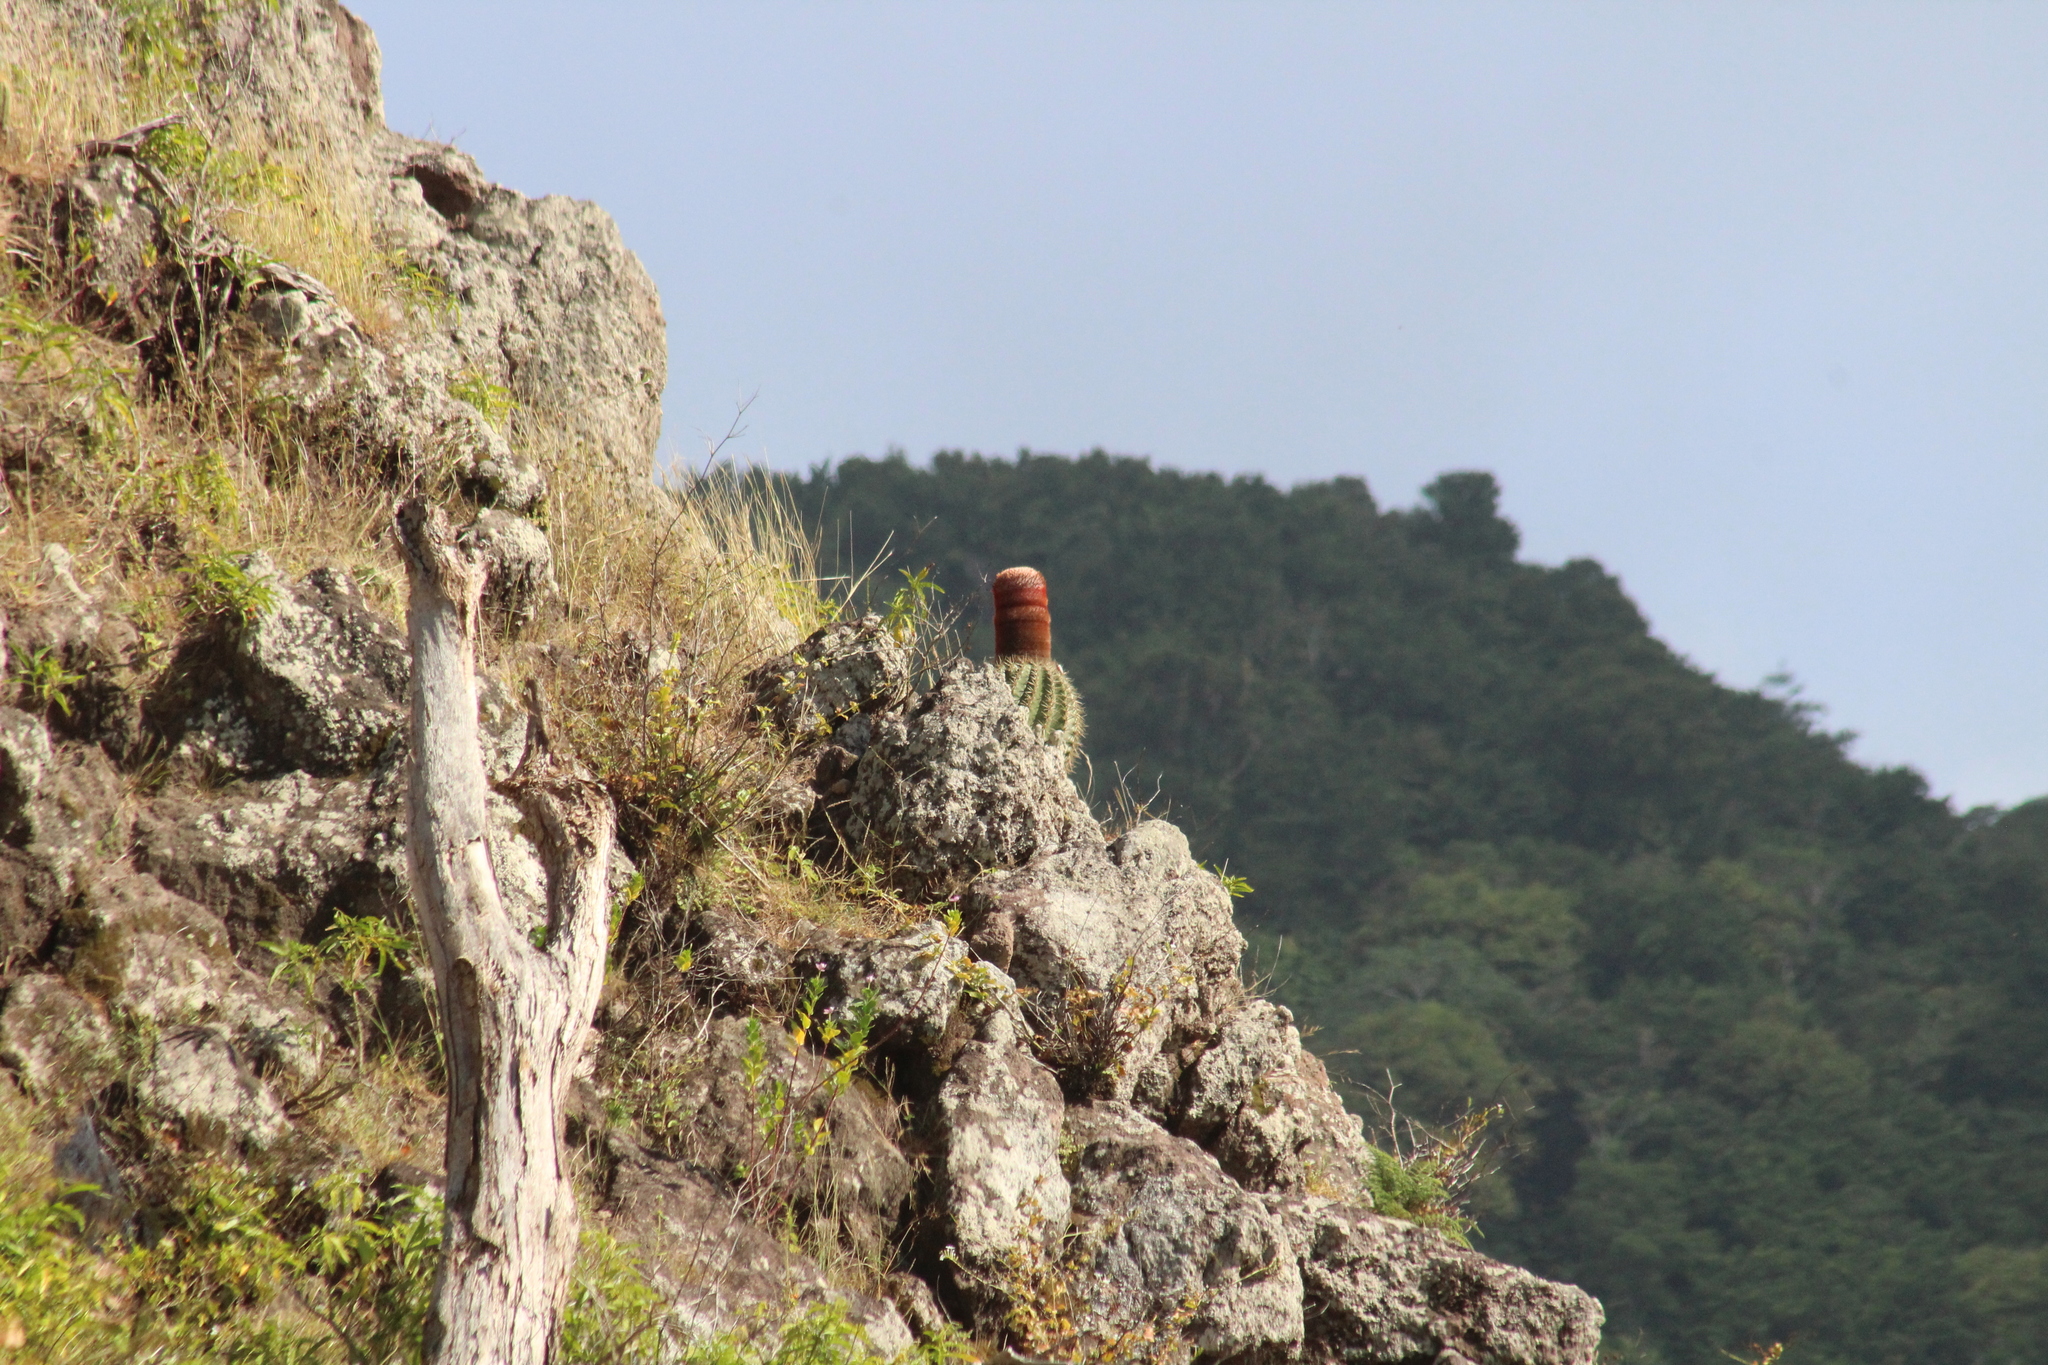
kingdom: Plantae
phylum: Tracheophyta
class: Magnoliopsida
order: Caryophyllales
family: Cactaceae
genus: Melocactus
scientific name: Melocactus intortus
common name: Barrel cactus
